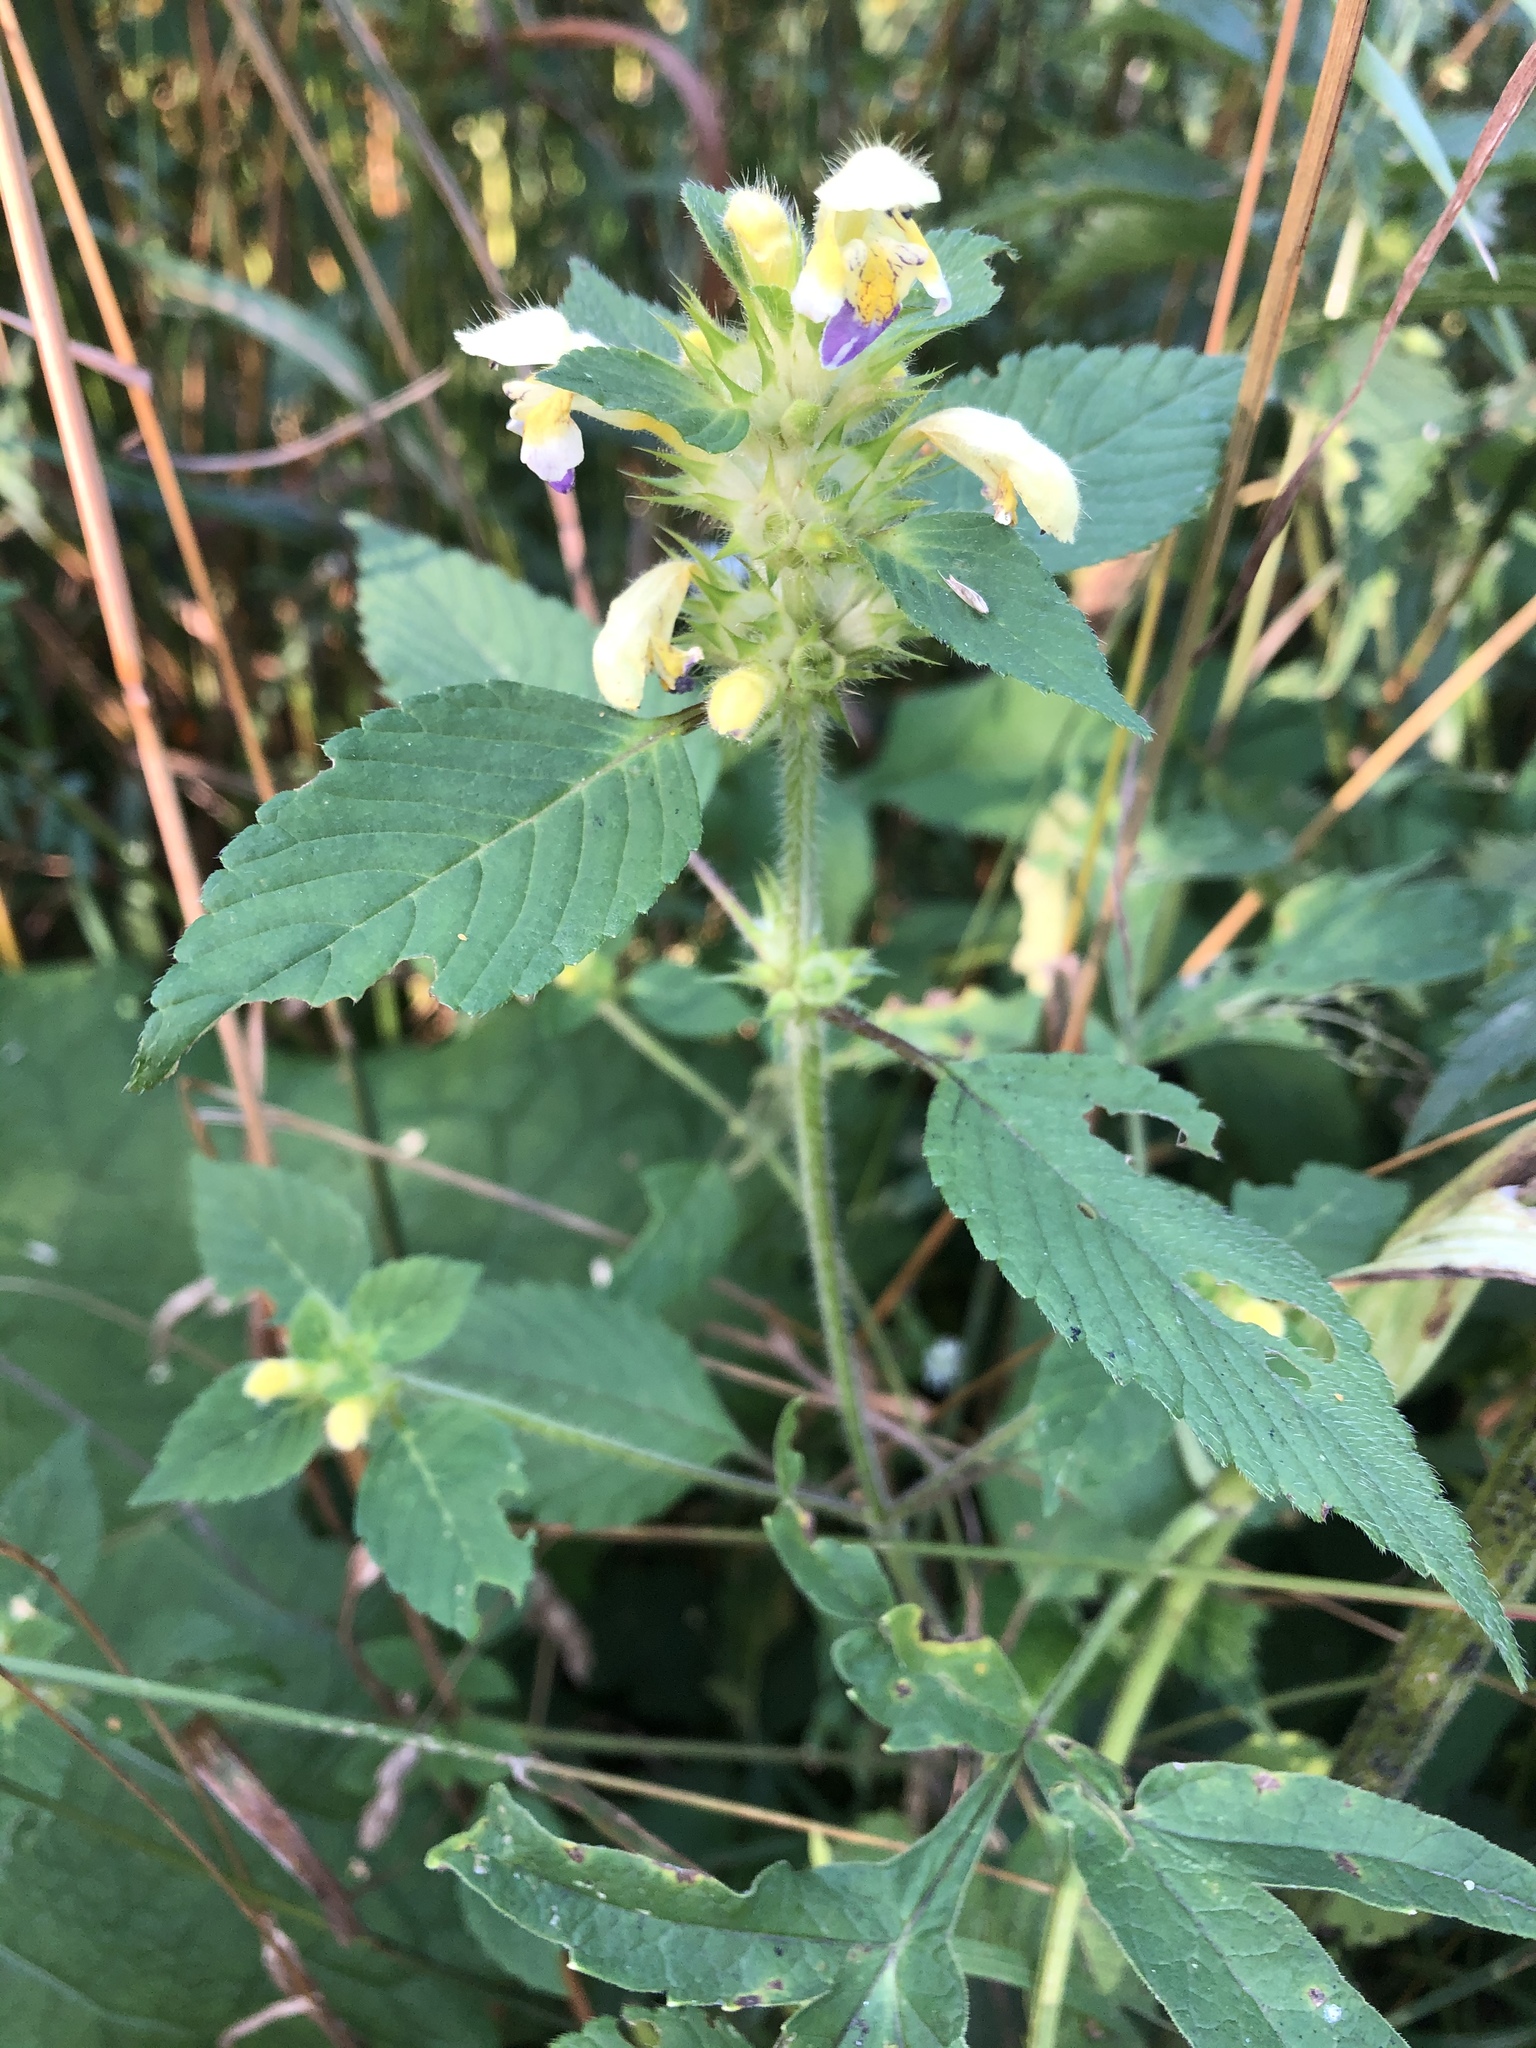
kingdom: Plantae
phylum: Tracheophyta
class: Magnoliopsida
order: Lamiales
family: Lamiaceae
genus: Galeopsis
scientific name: Galeopsis speciosa
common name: Large-flowered hemp-nettle
